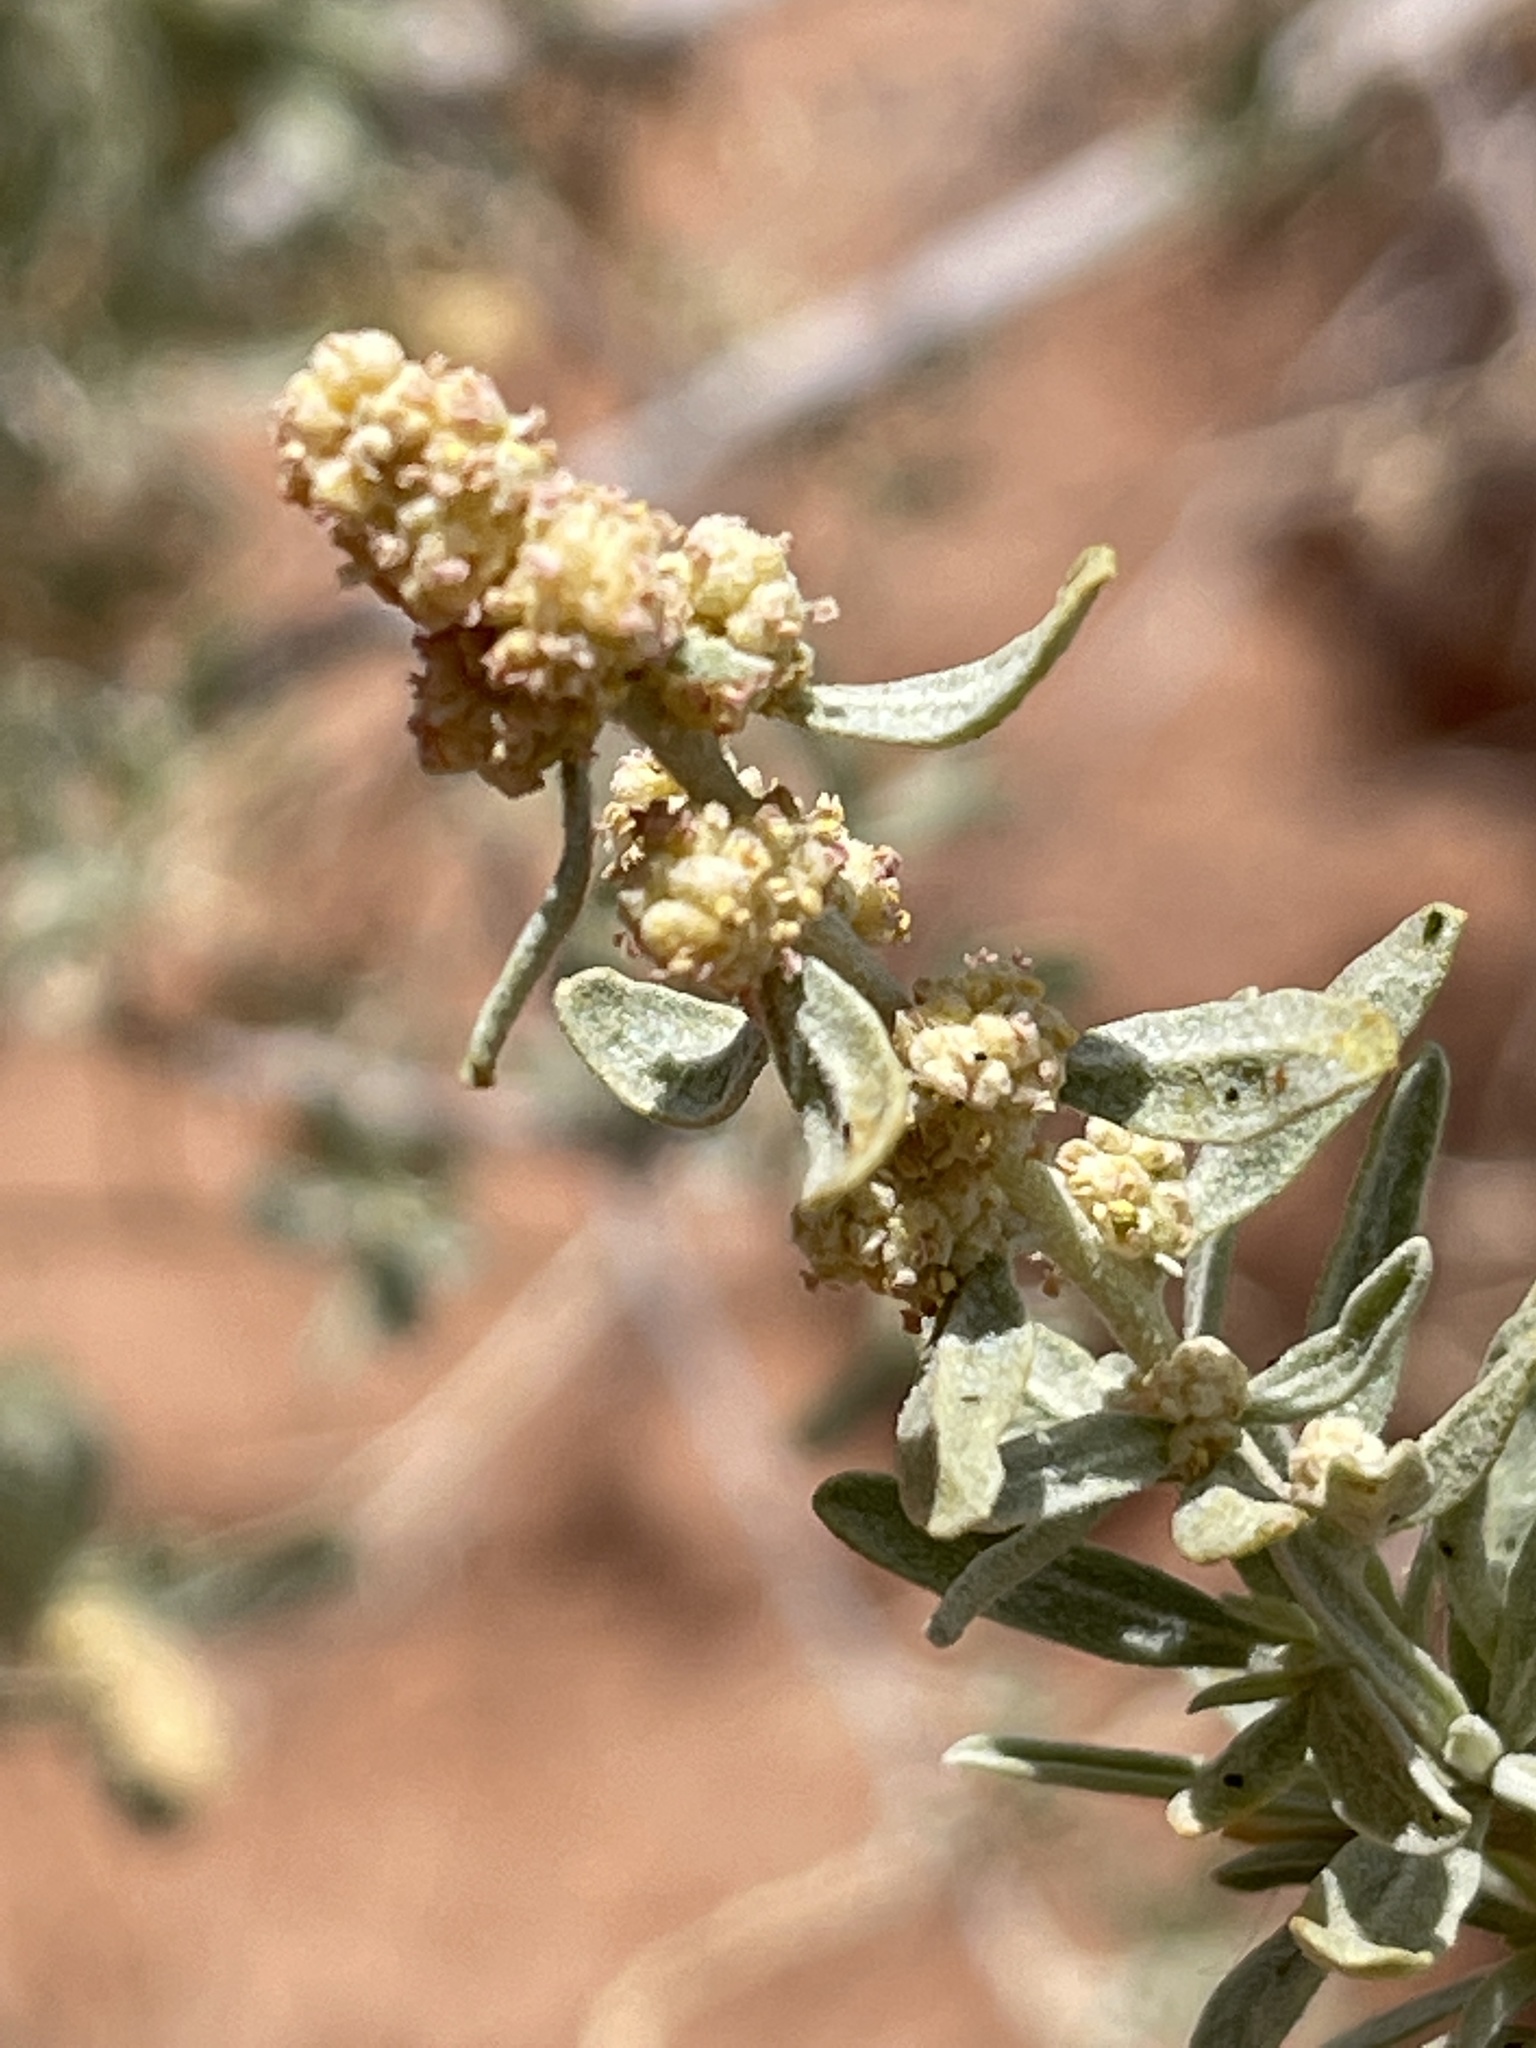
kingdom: Plantae
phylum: Tracheophyta
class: Magnoliopsida
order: Caryophyllales
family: Amaranthaceae
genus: Atriplex
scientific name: Atriplex canescens
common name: Four-wing saltbush
